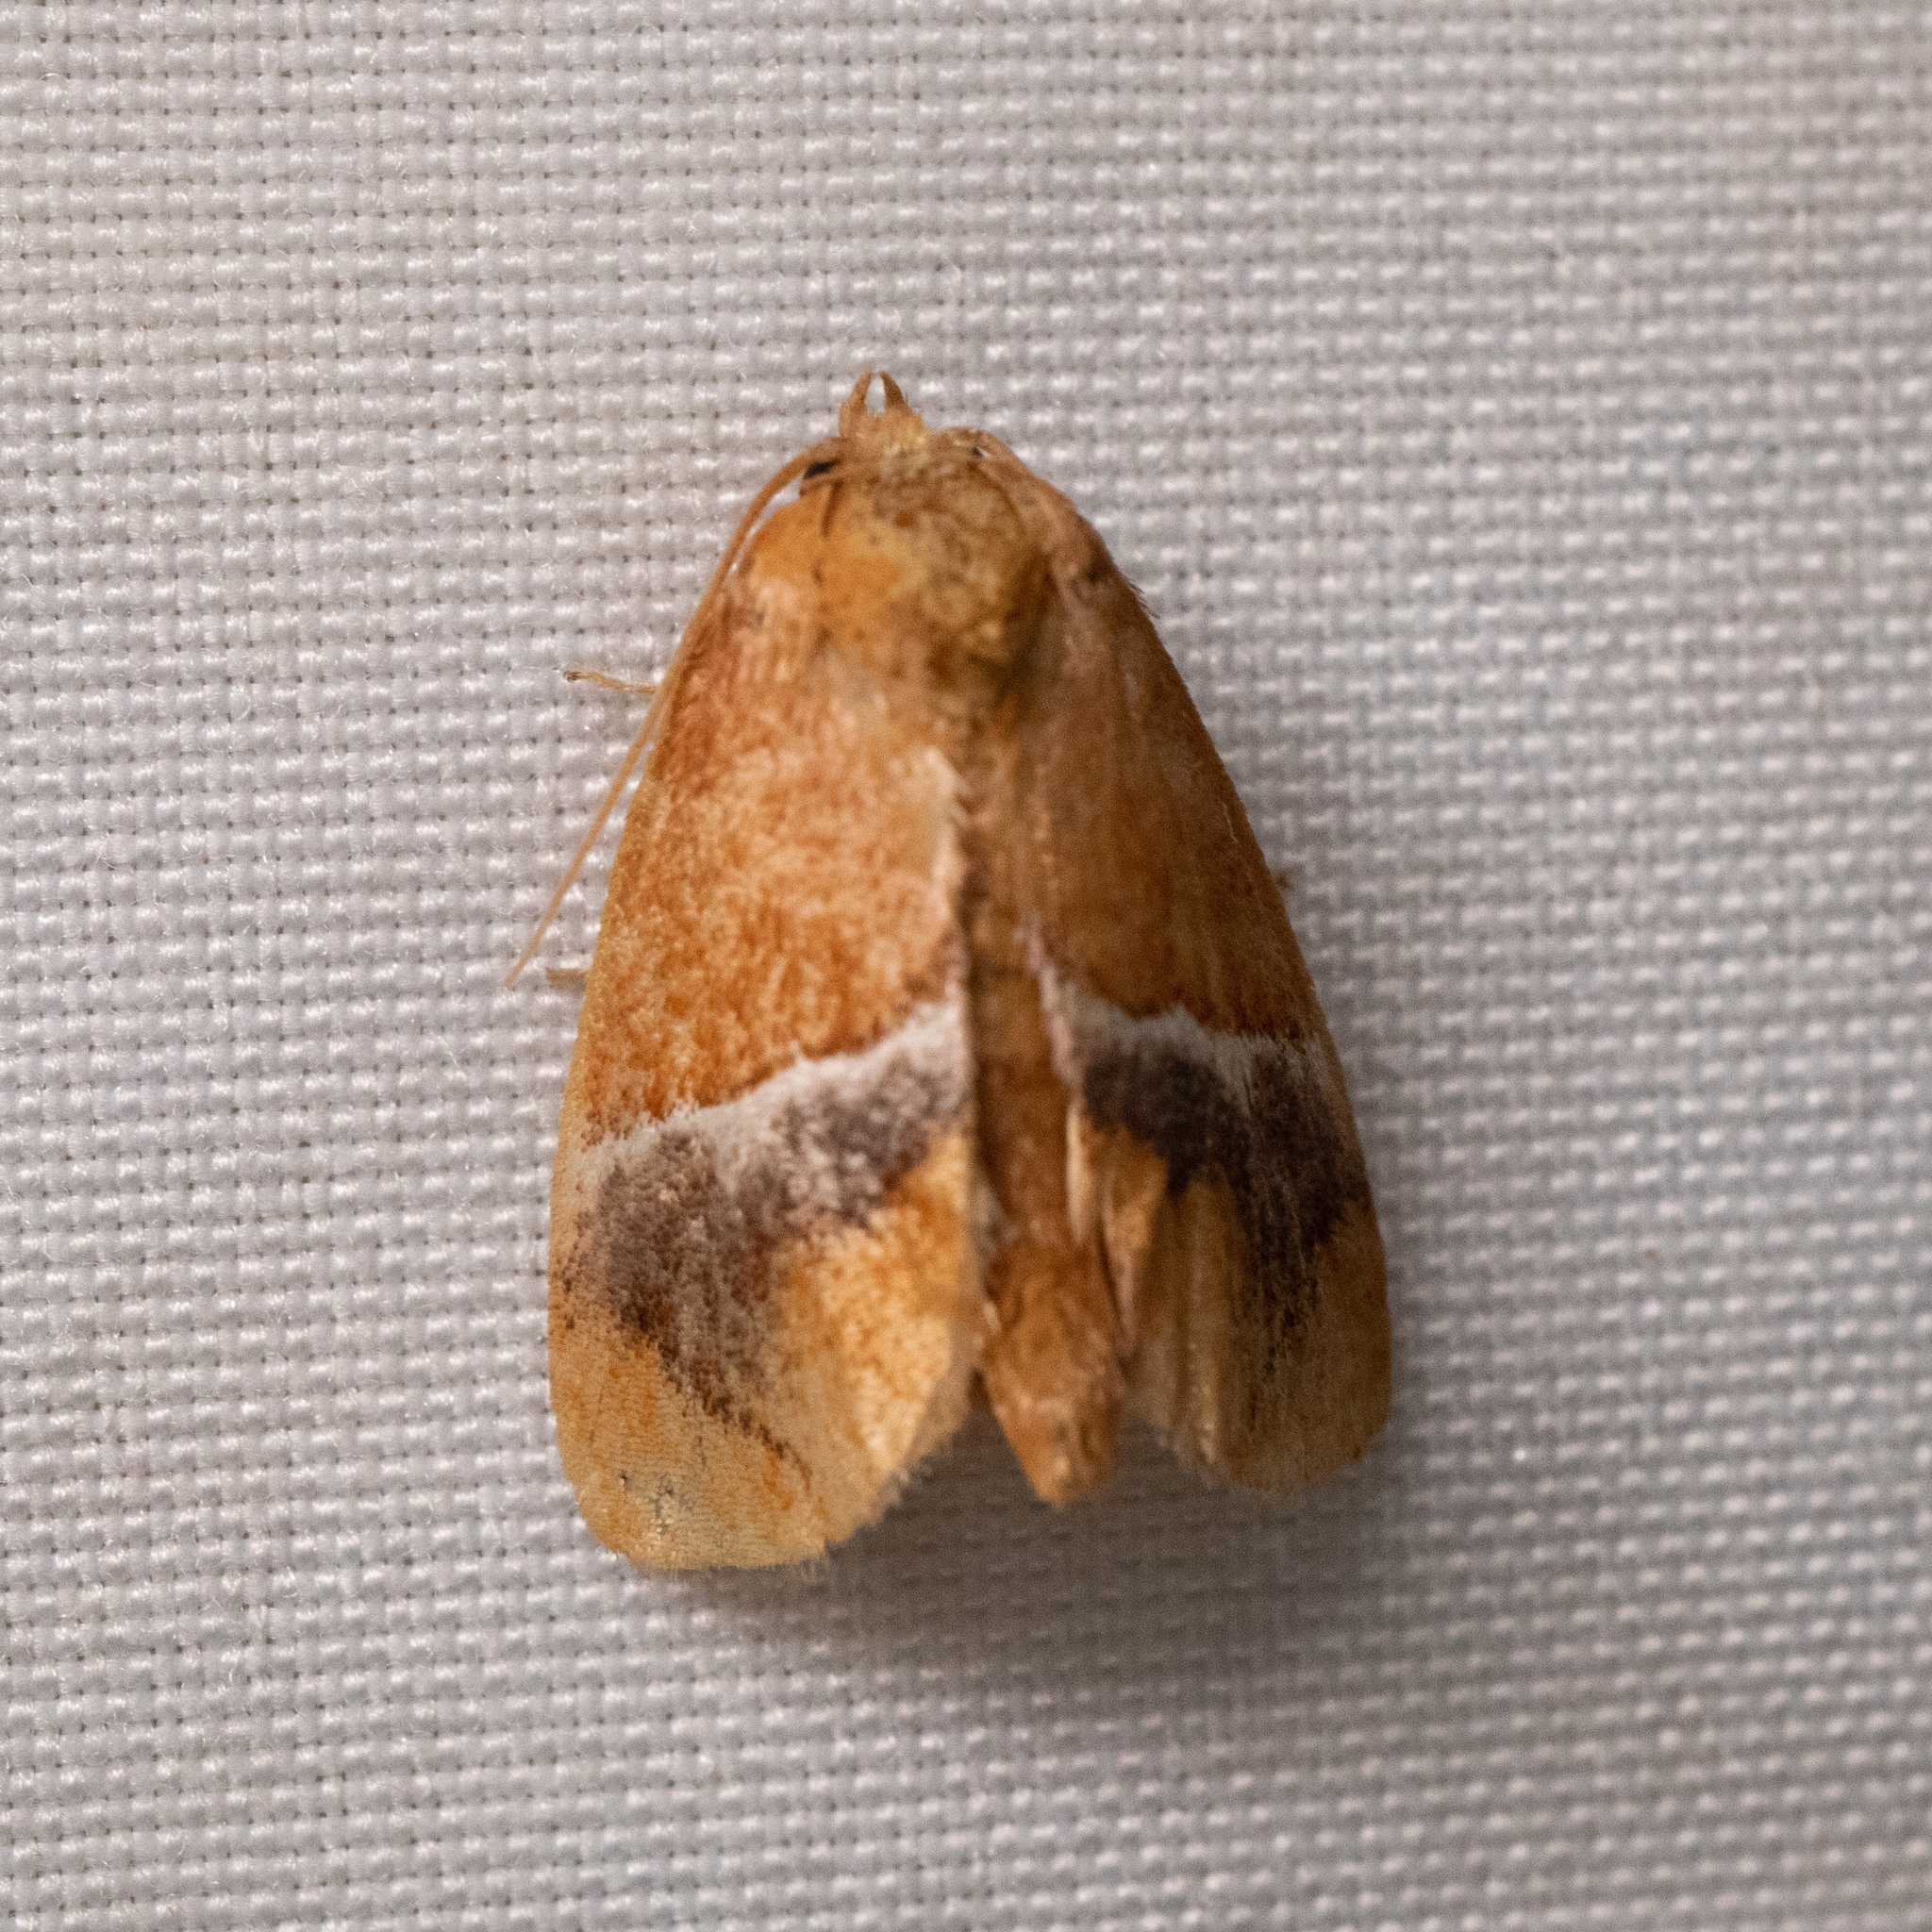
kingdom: Animalia
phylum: Arthropoda
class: Insecta
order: Lepidoptera
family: Limacodidae
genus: Lithacodes
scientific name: Lithacodes fasciola
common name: Yellow-shouldered slug moth
